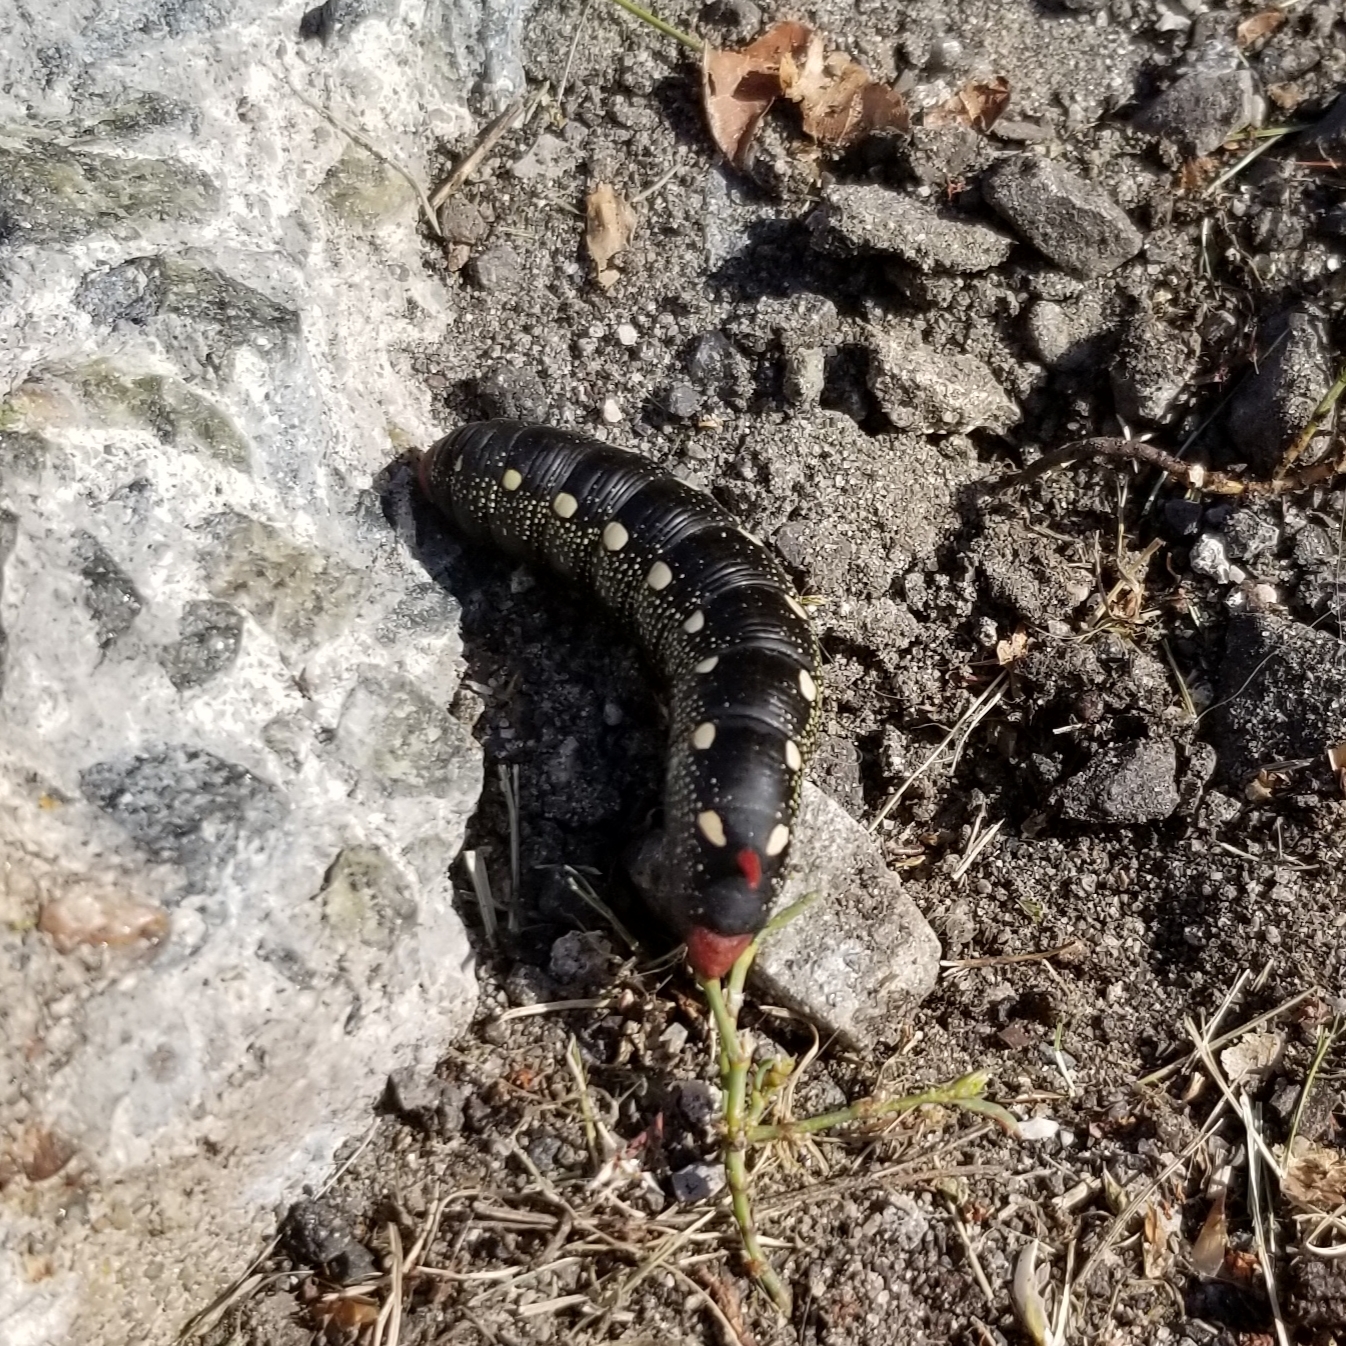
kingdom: Animalia
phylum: Arthropoda
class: Insecta
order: Lepidoptera
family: Sphingidae
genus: Hyles
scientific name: Hyles gallii
